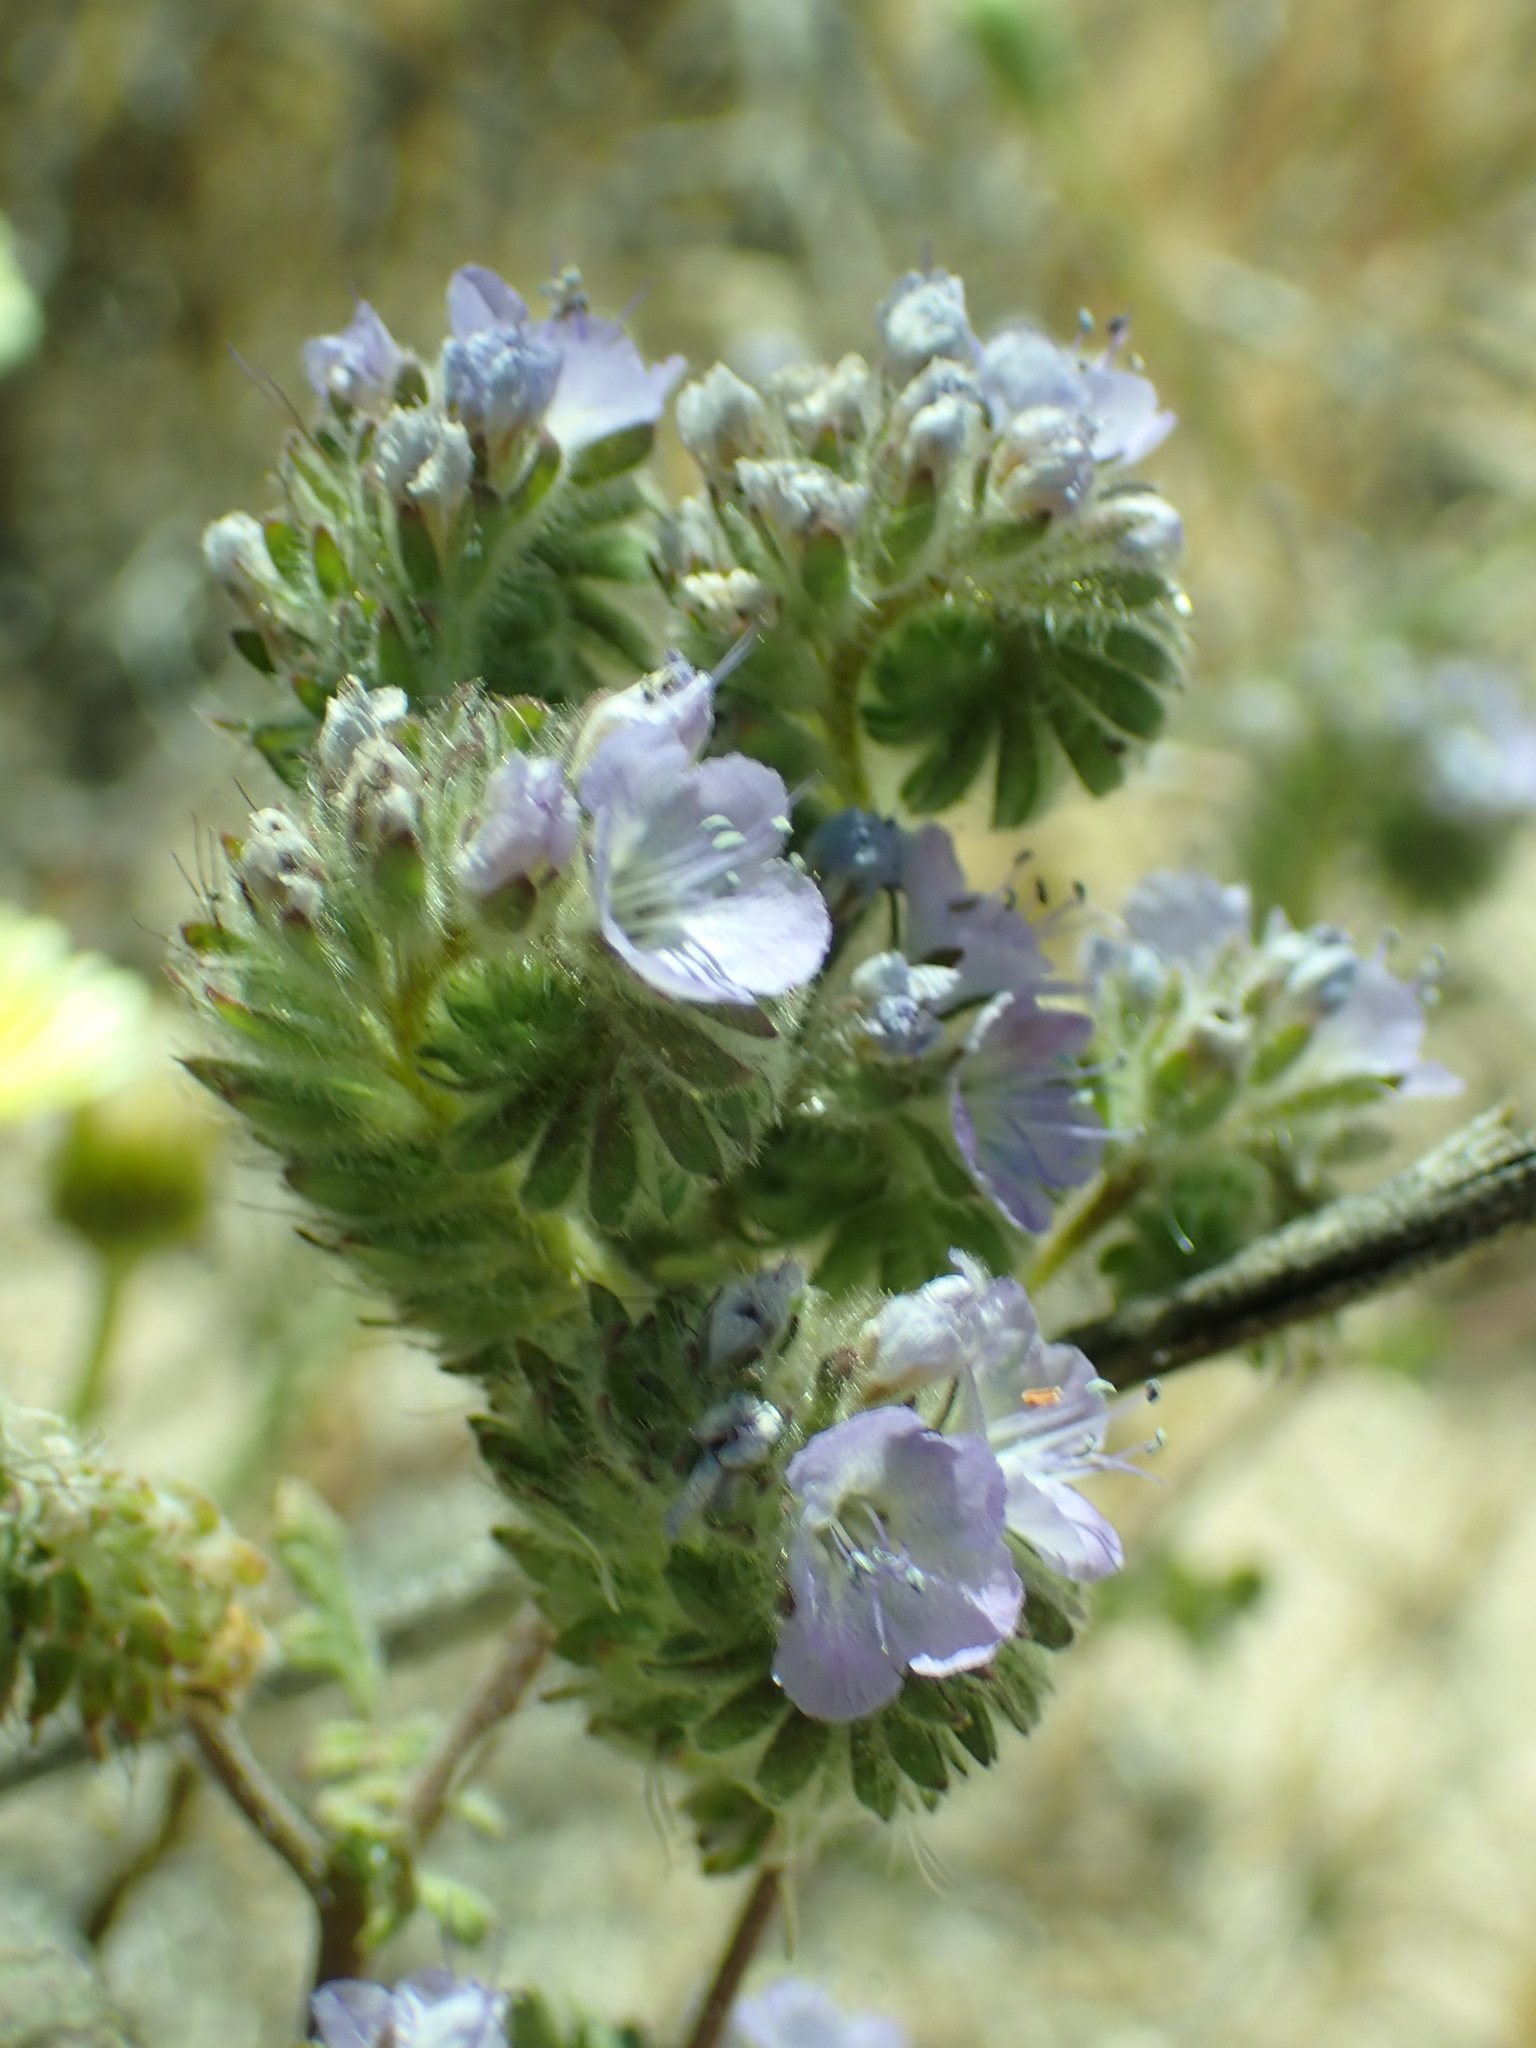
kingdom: Plantae
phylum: Tracheophyta
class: Magnoliopsida
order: Boraginales
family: Hydrophyllaceae
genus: Phacelia
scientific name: Phacelia distans
